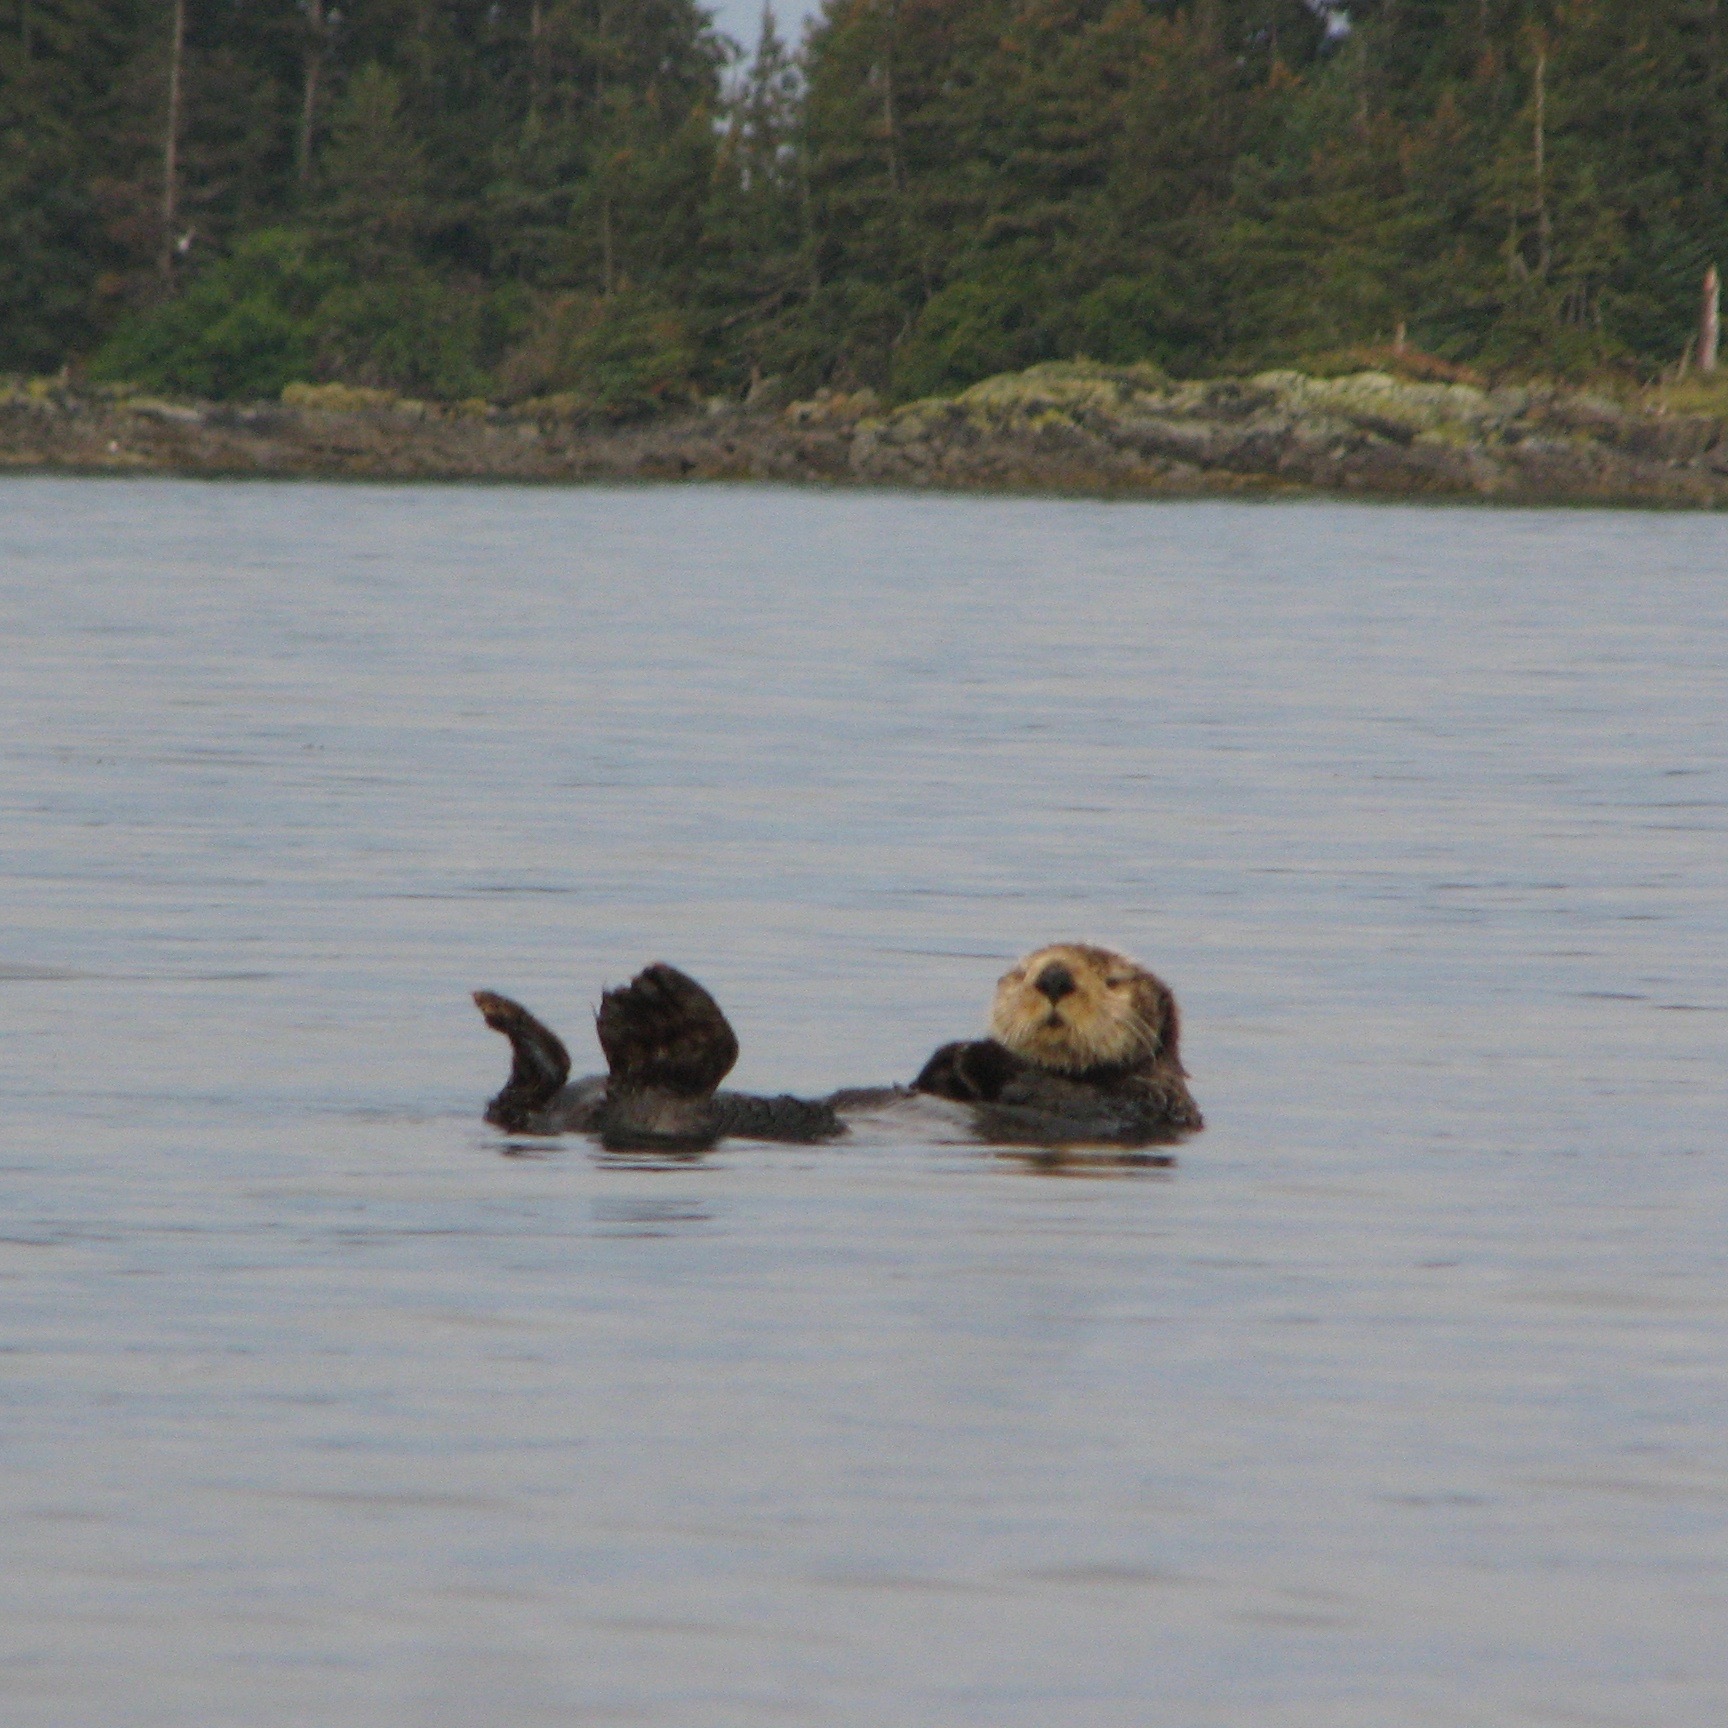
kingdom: Animalia
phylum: Chordata
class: Mammalia
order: Carnivora
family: Mustelidae
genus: Enhydra
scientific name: Enhydra lutris
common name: Sea otter
